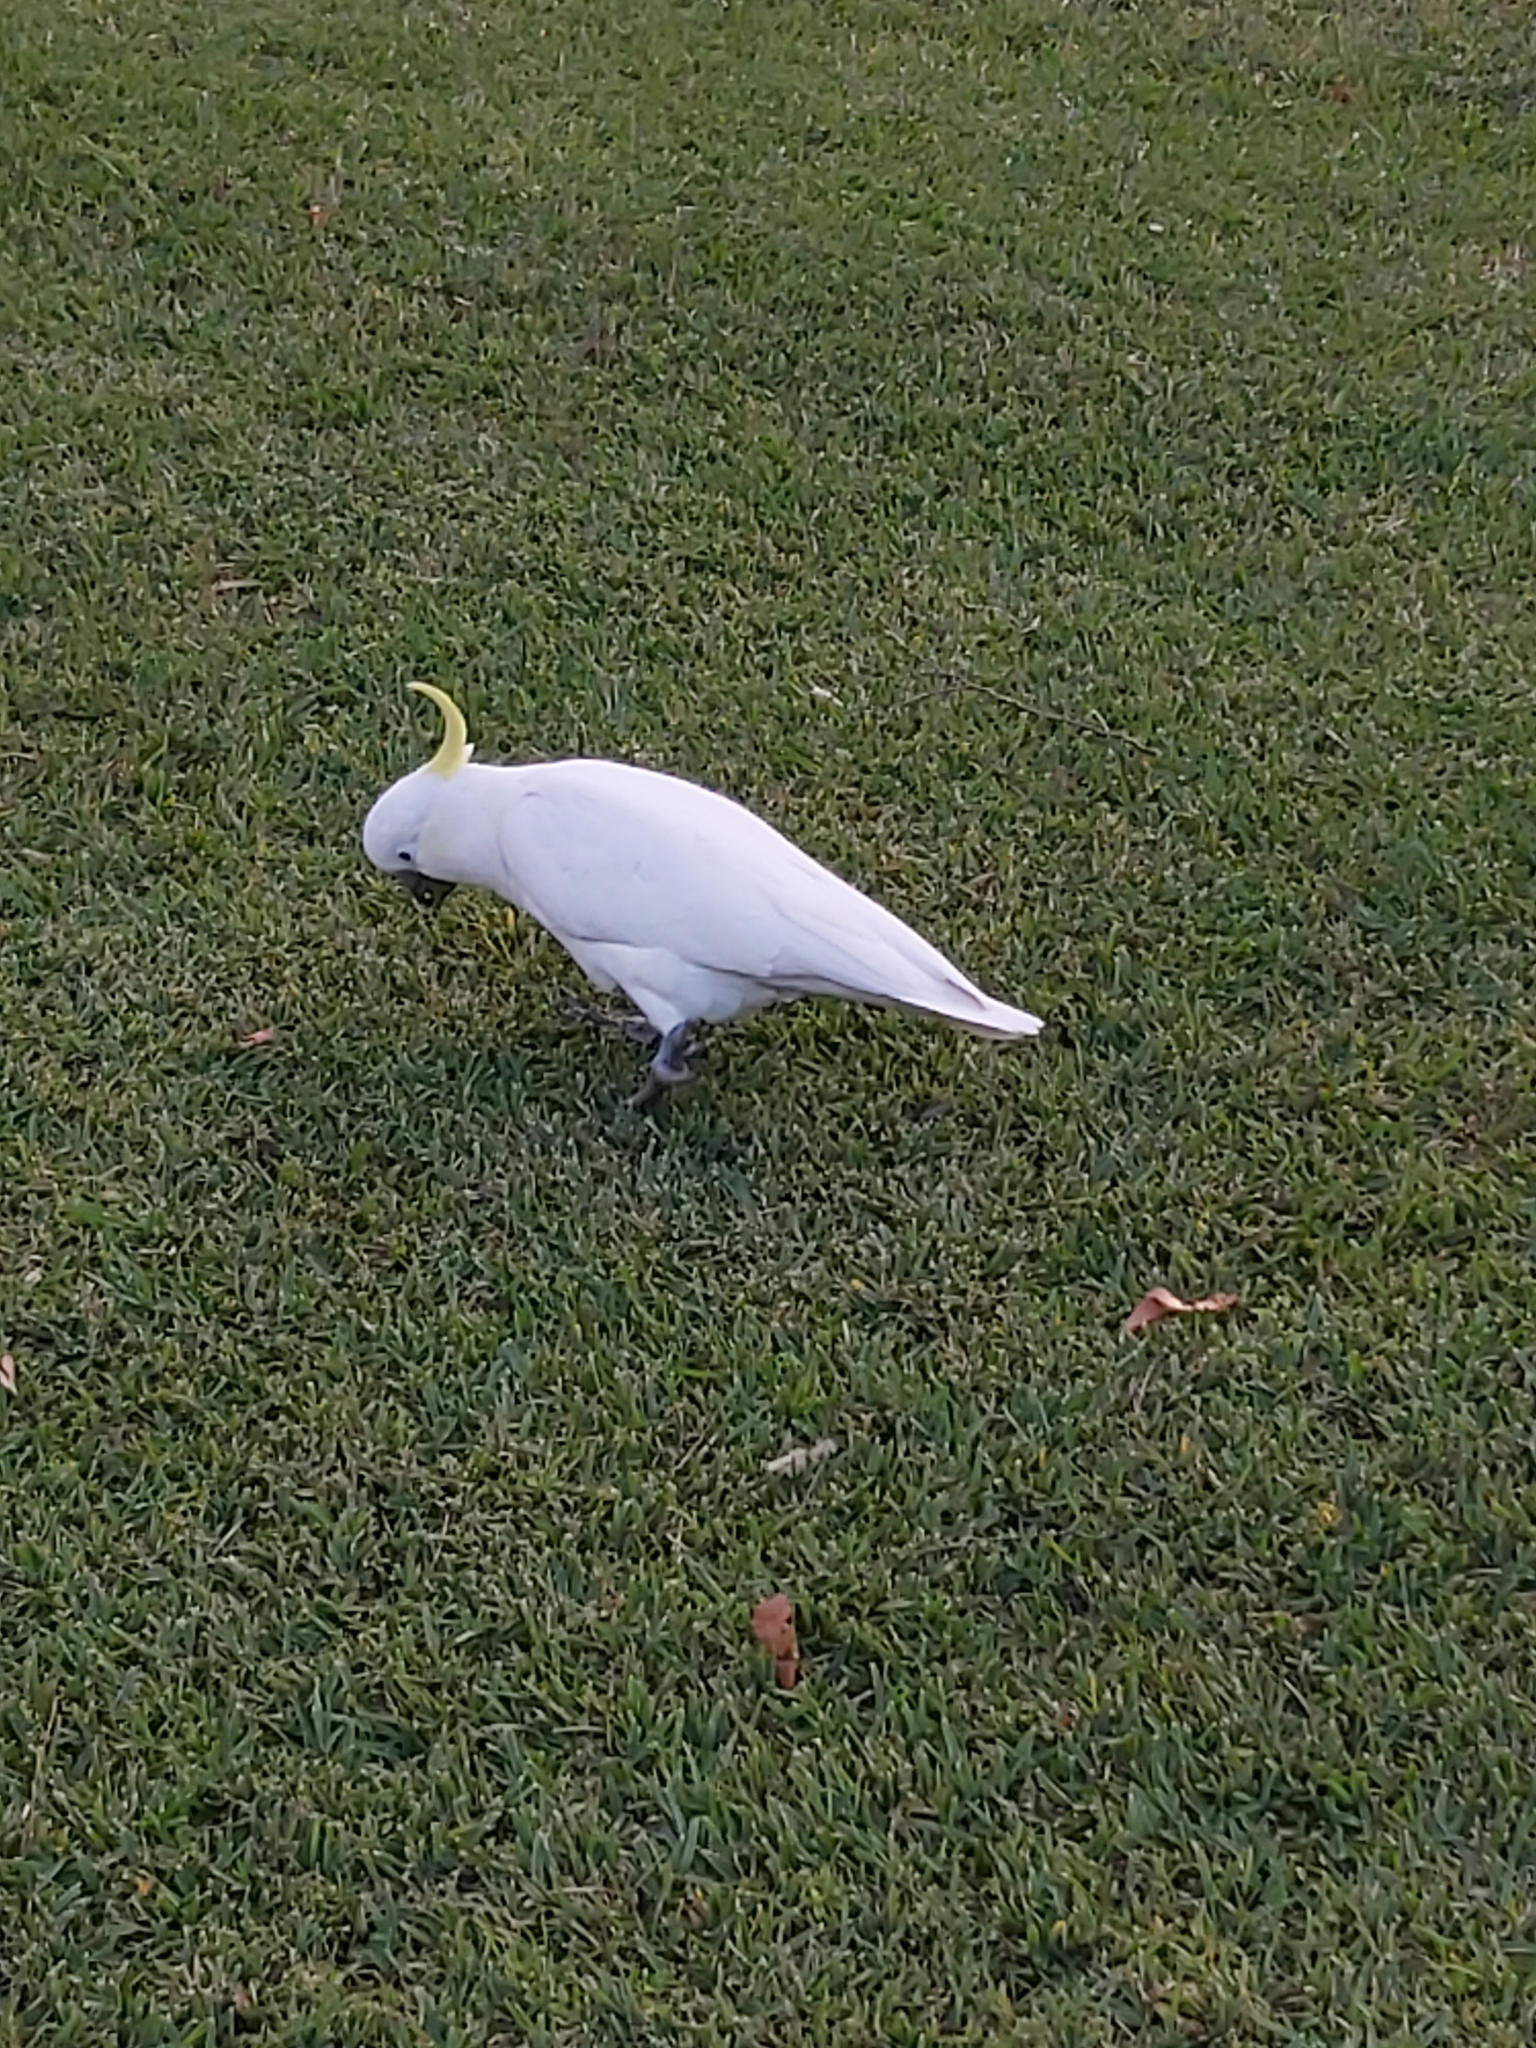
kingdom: Animalia
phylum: Chordata
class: Aves
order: Psittaciformes
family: Psittacidae
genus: Cacatua
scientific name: Cacatua galerita
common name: Sulphur-crested cockatoo
